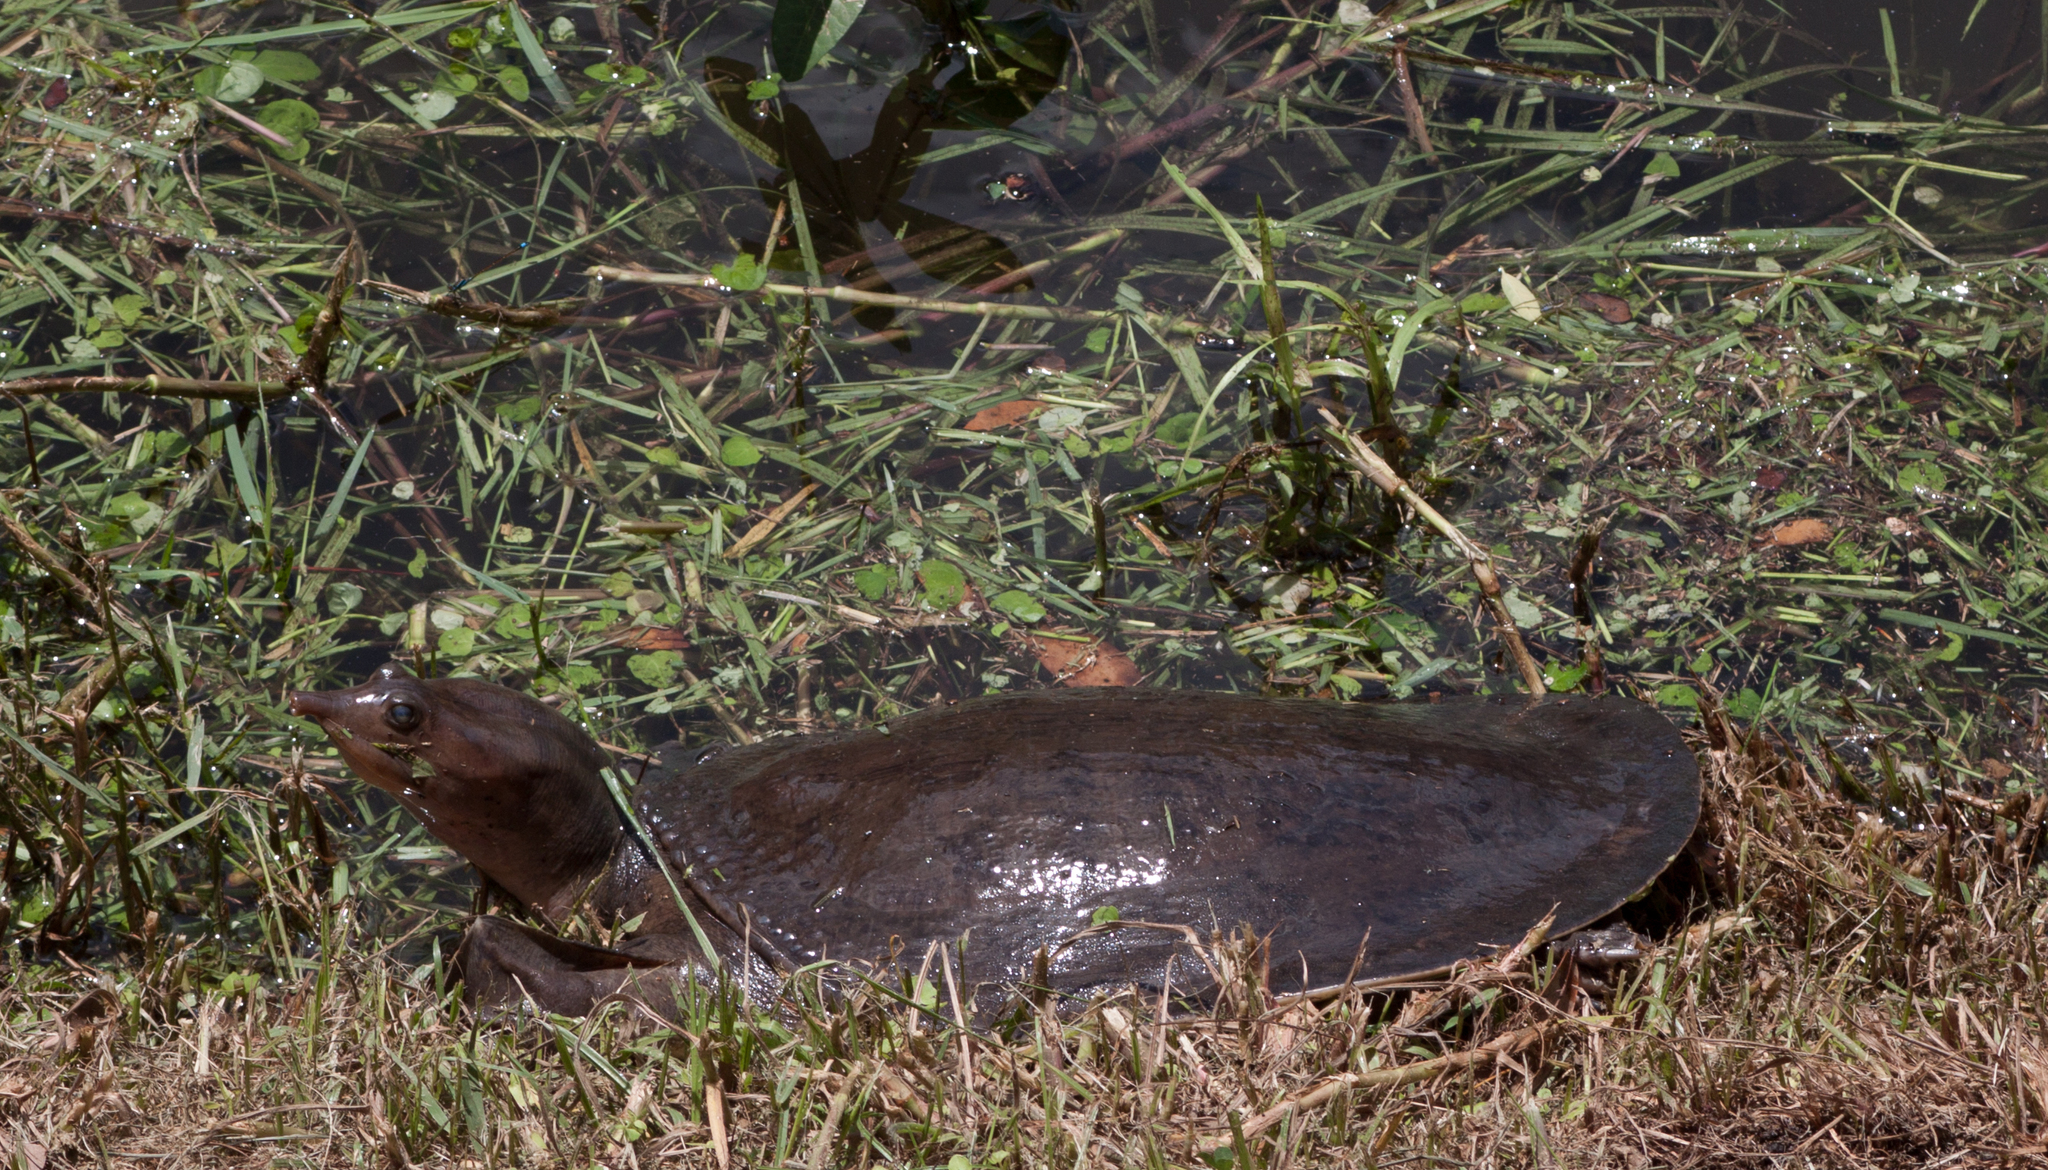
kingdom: Animalia
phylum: Chordata
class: Testudines
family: Trionychidae
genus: Apalone
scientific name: Apalone ferox
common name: Florida softshell turtle
